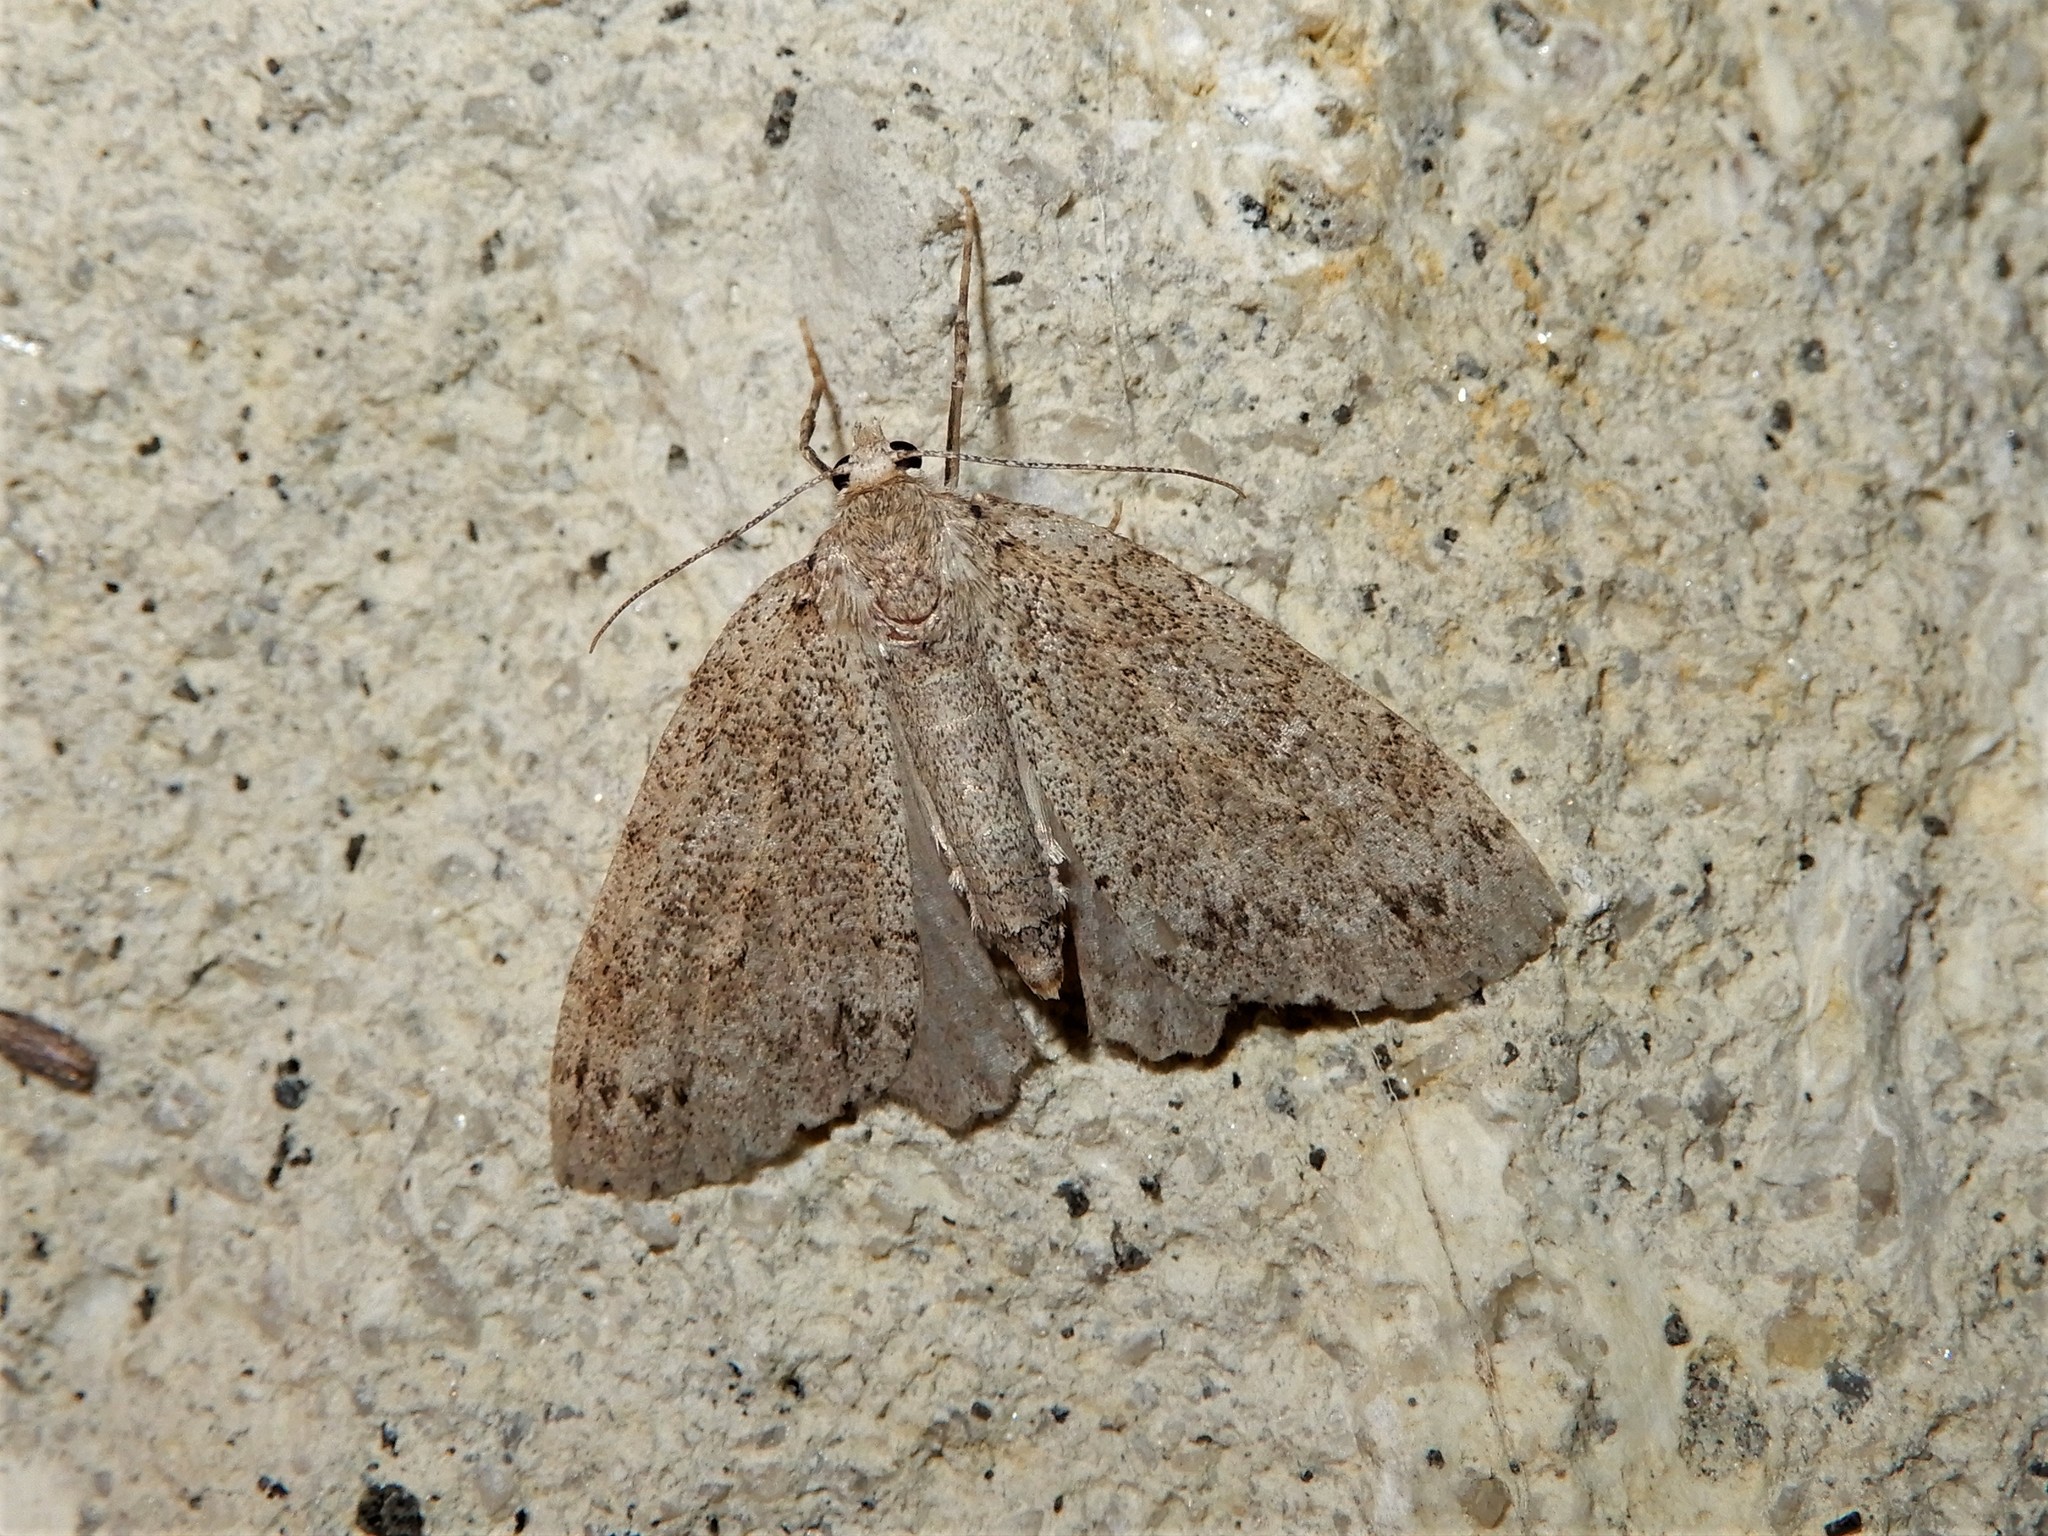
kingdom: Animalia
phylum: Arthropoda
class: Insecta
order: Lepidoptera
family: Geometridae
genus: Pseudocoremia
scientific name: Pseudocoremia fenerata
